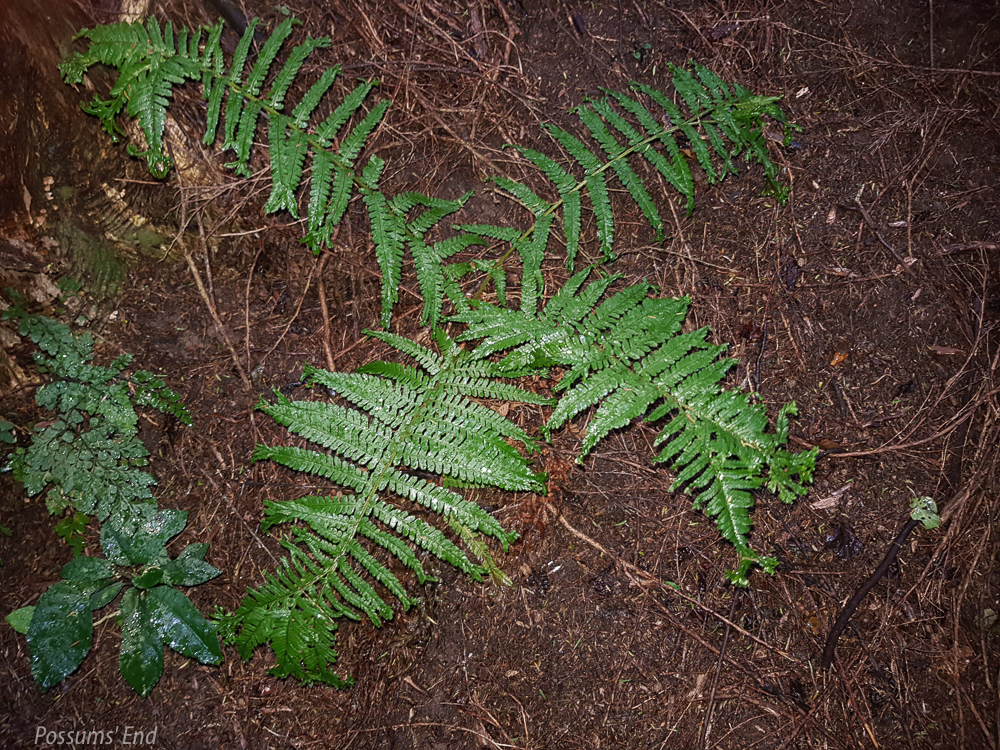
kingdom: Plantae
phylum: Tracheophyta
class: Polypodiopsida
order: Polypodiales
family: Dryopteridaceae
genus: Dryopteris
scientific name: Dryopteris filix-mas
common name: Male fern
